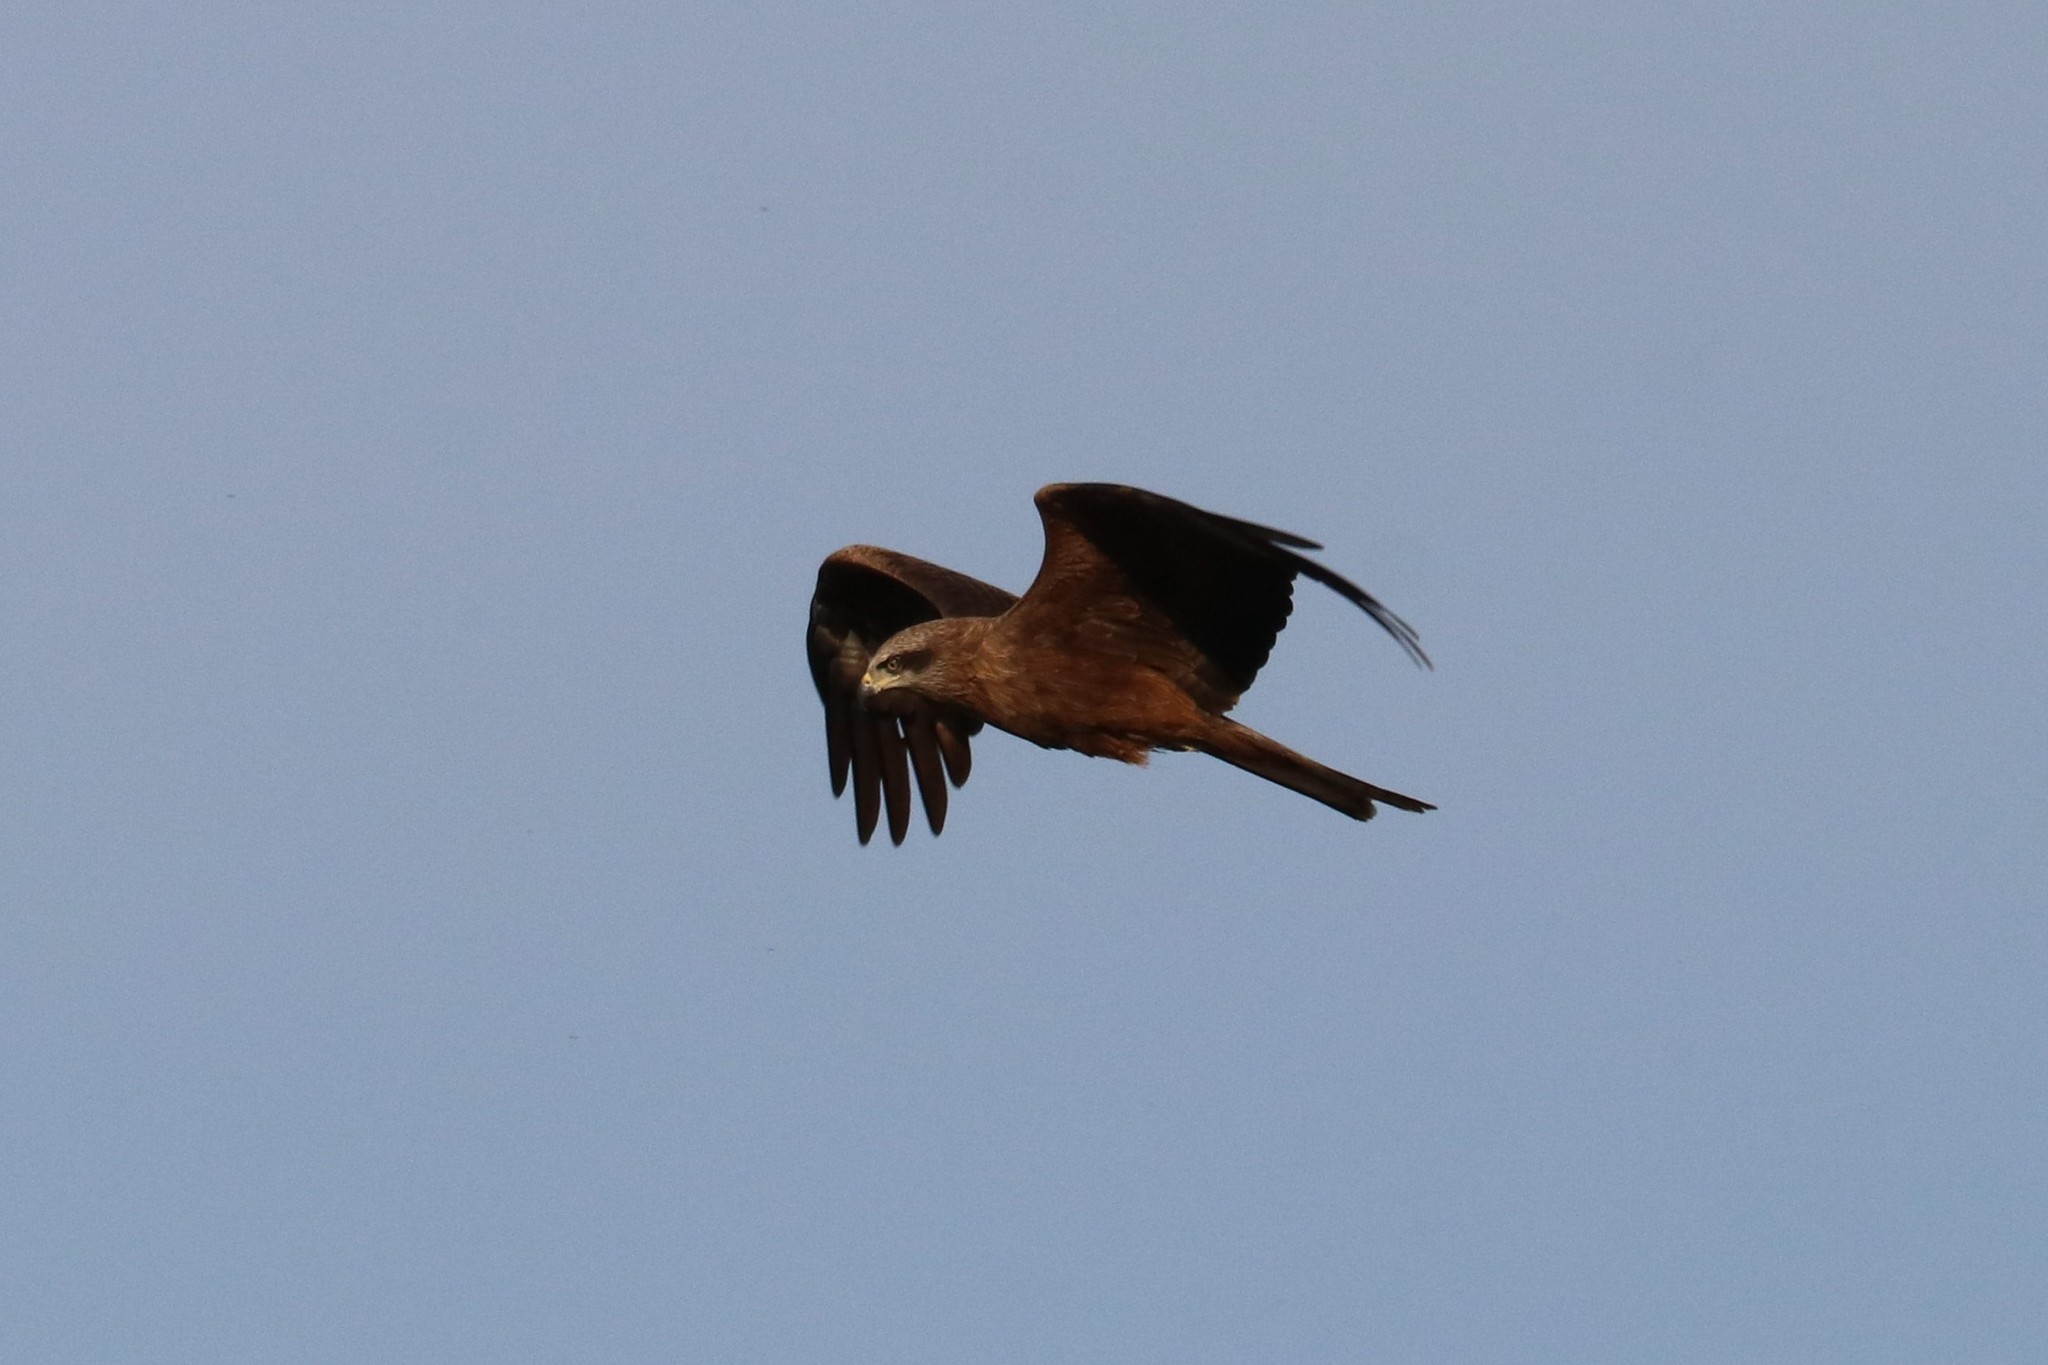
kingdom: Animalia
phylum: Chordata
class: Aves
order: Accipitriformes
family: Accipitridae
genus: Milvus
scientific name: Milvus migrans
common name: Black kite
